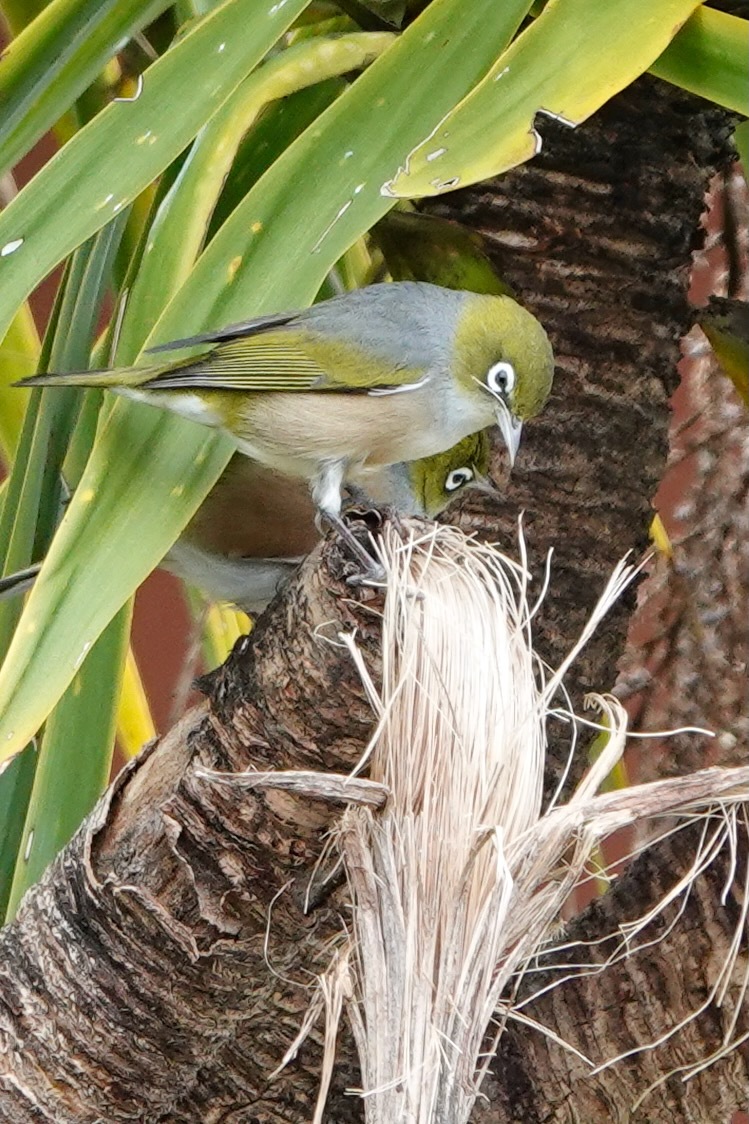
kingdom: Animalia
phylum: Chordata
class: Aves
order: Passeriformes
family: Zosteropidae
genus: Zosterops
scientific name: Zosterops lateralis
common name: Silvereye
